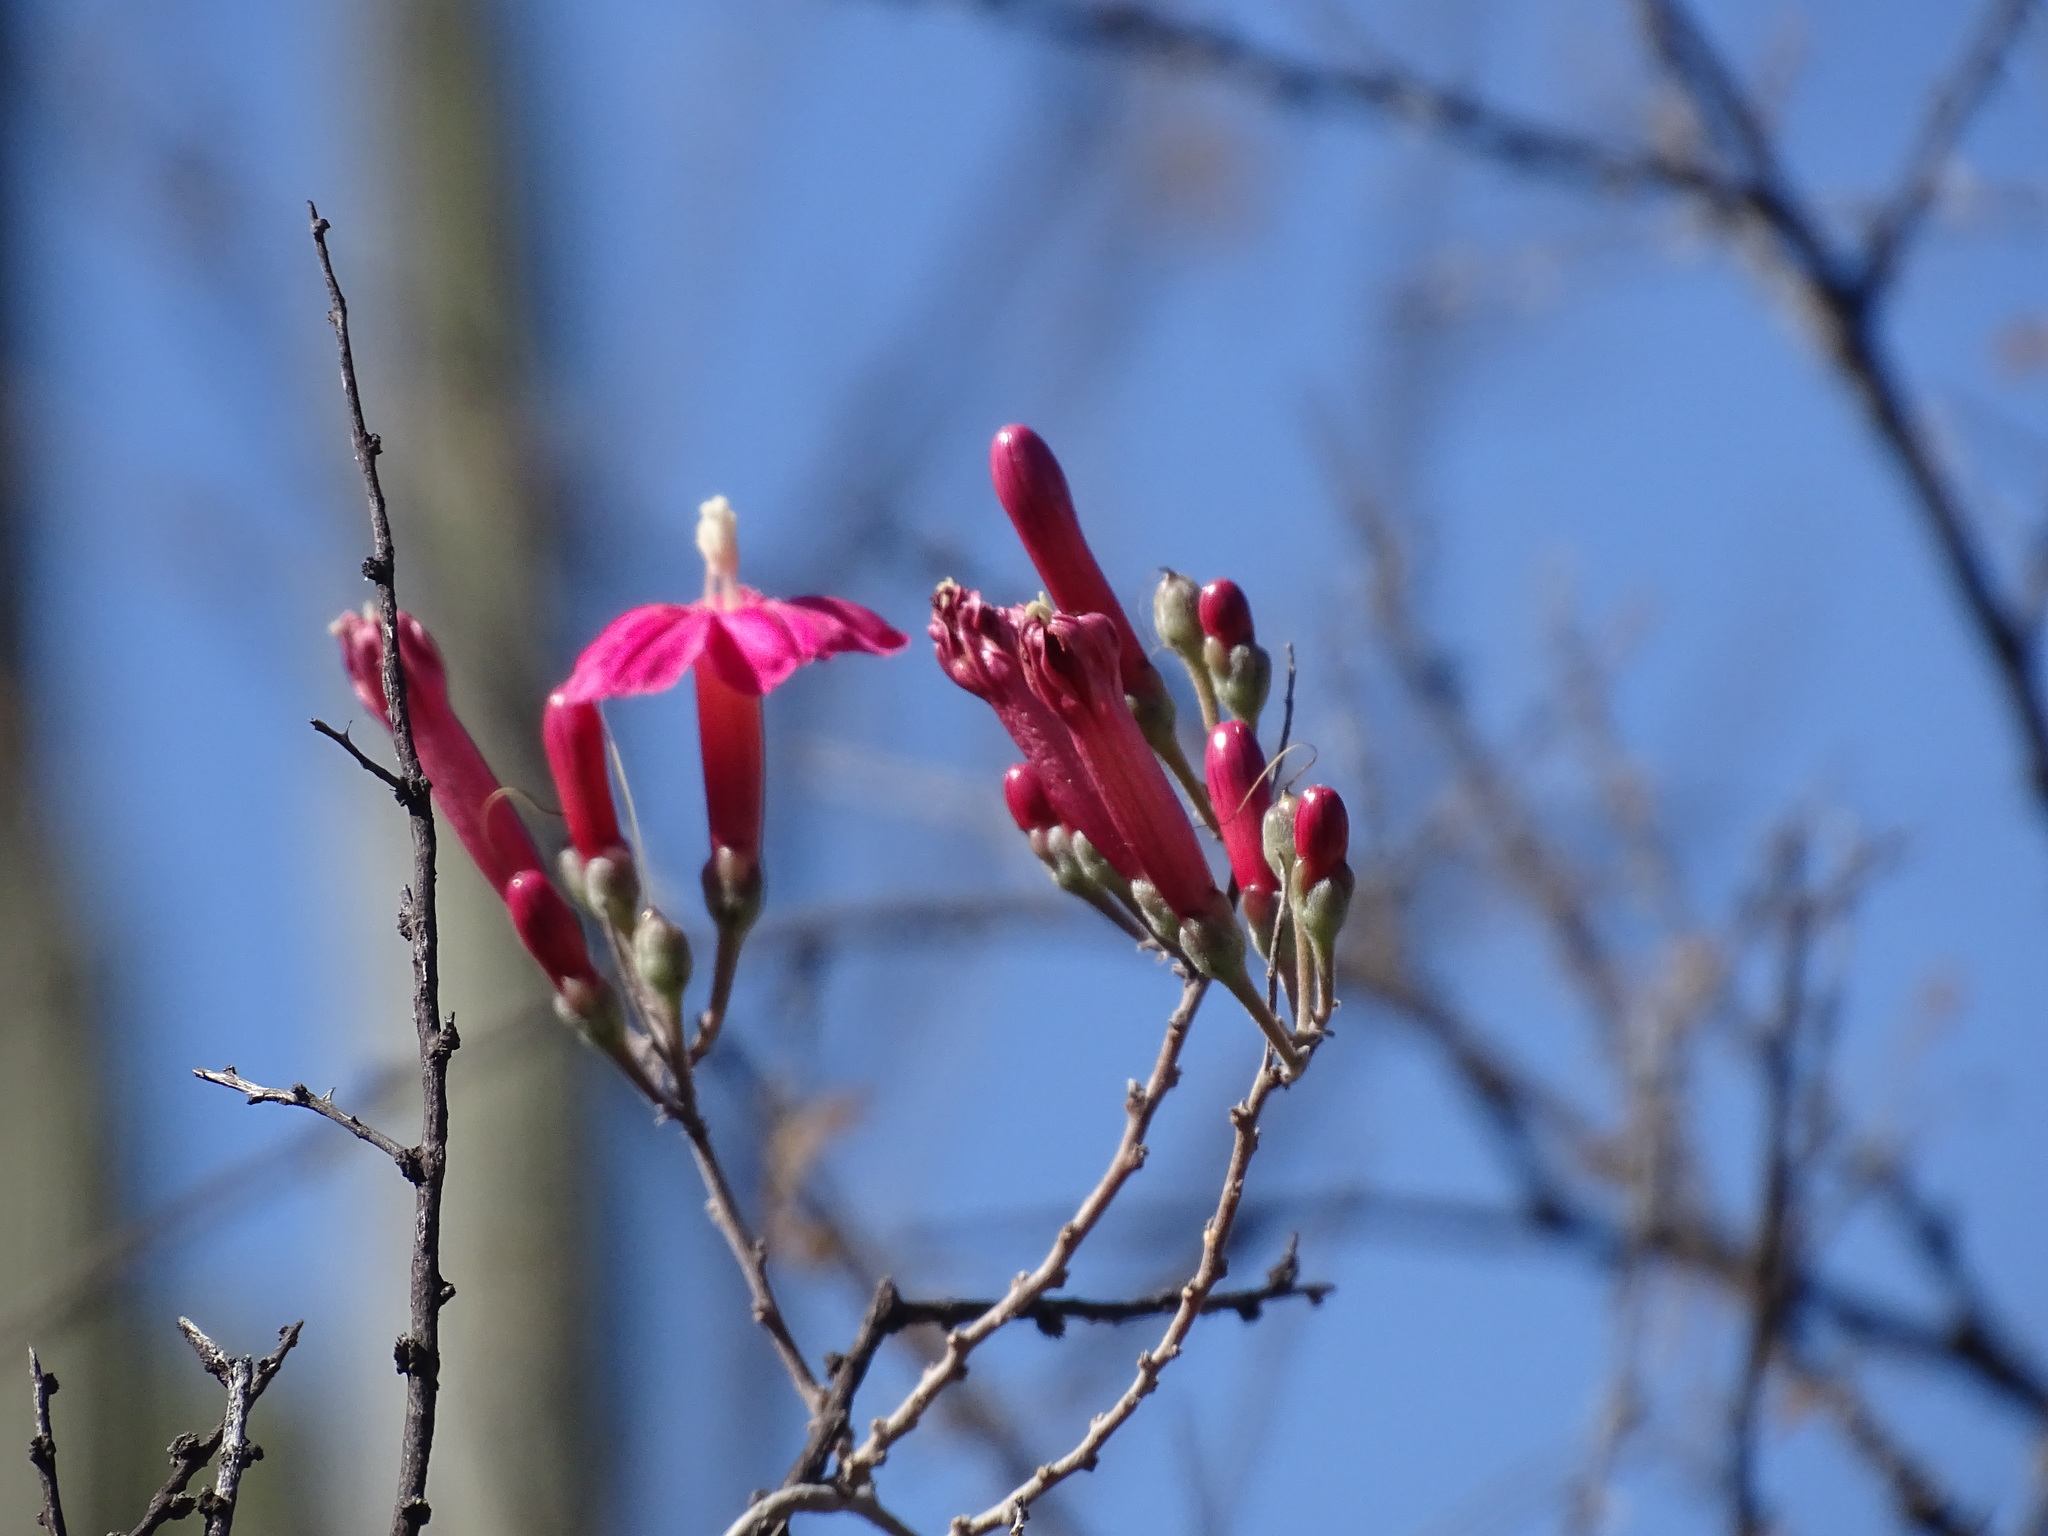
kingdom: Plantae
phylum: Tracheophyta
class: Magnoliopsida
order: Solanales
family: Convolvulaceae
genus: Ipomoea
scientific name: Ipomoea conzattii
